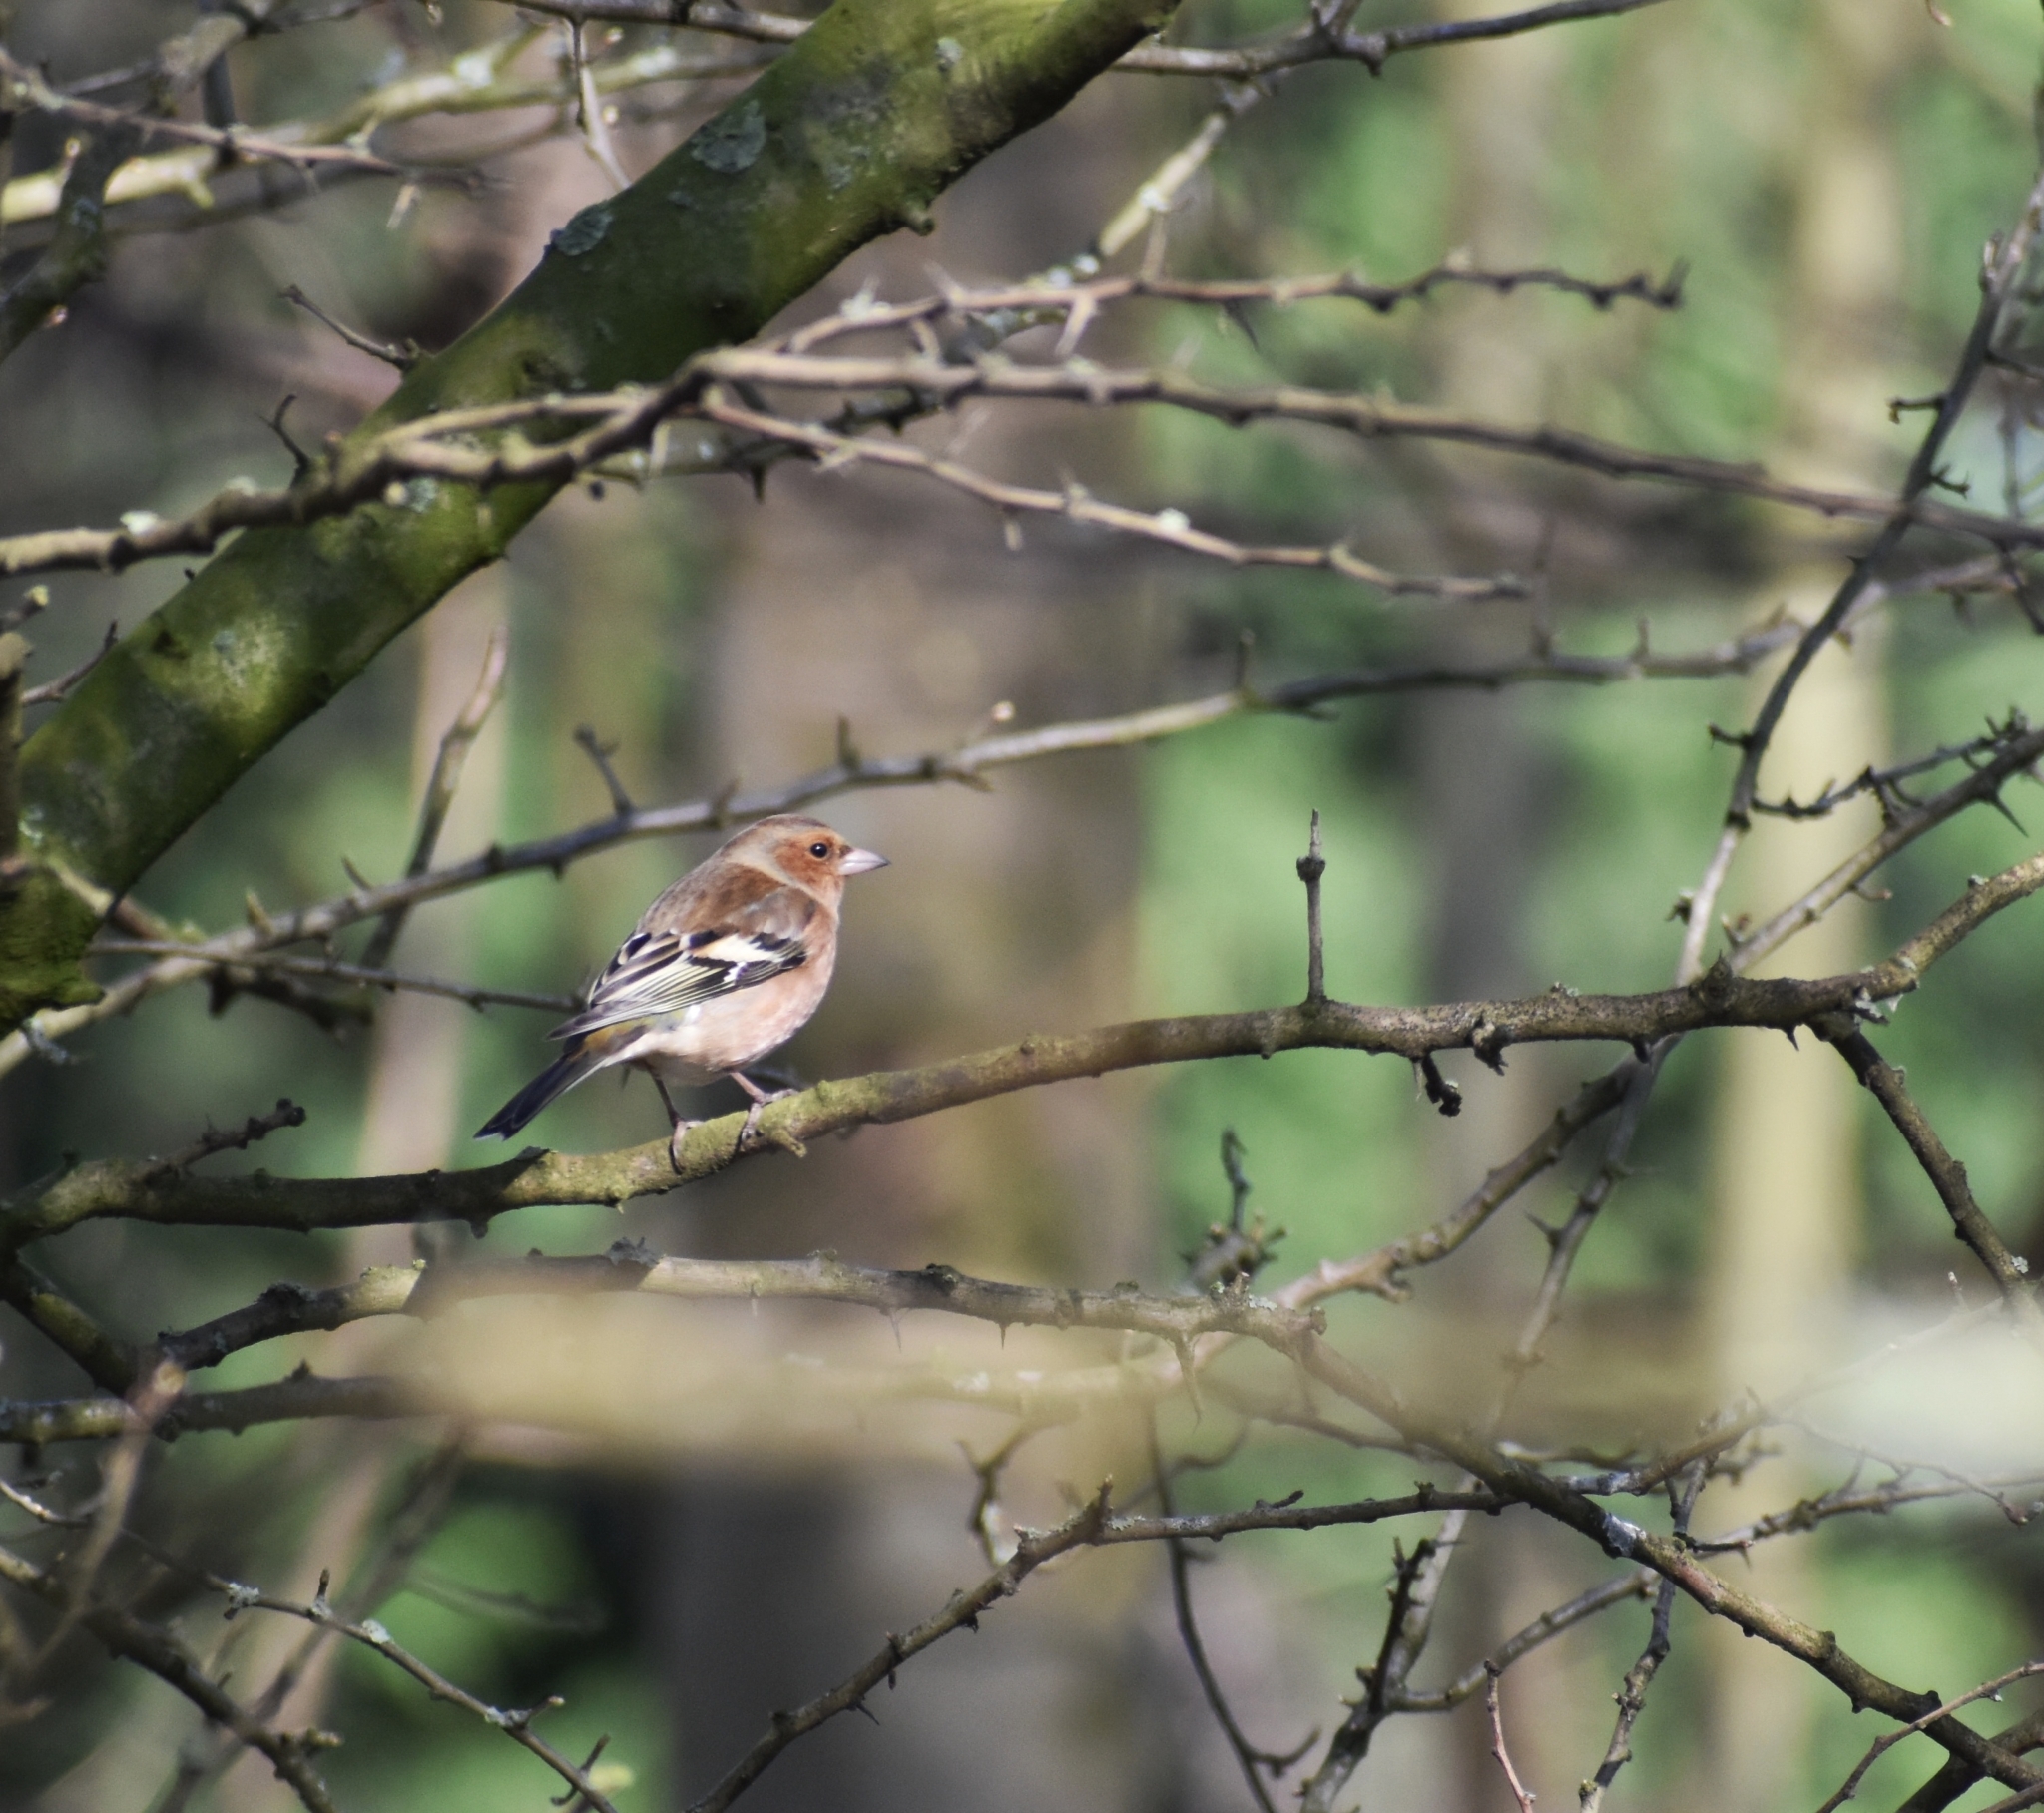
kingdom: Animalia
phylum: Chordata
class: Aves
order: Passeriformes
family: Fringillidae
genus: Fringilla
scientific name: Fringilla coelebs
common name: Common chaffinch
